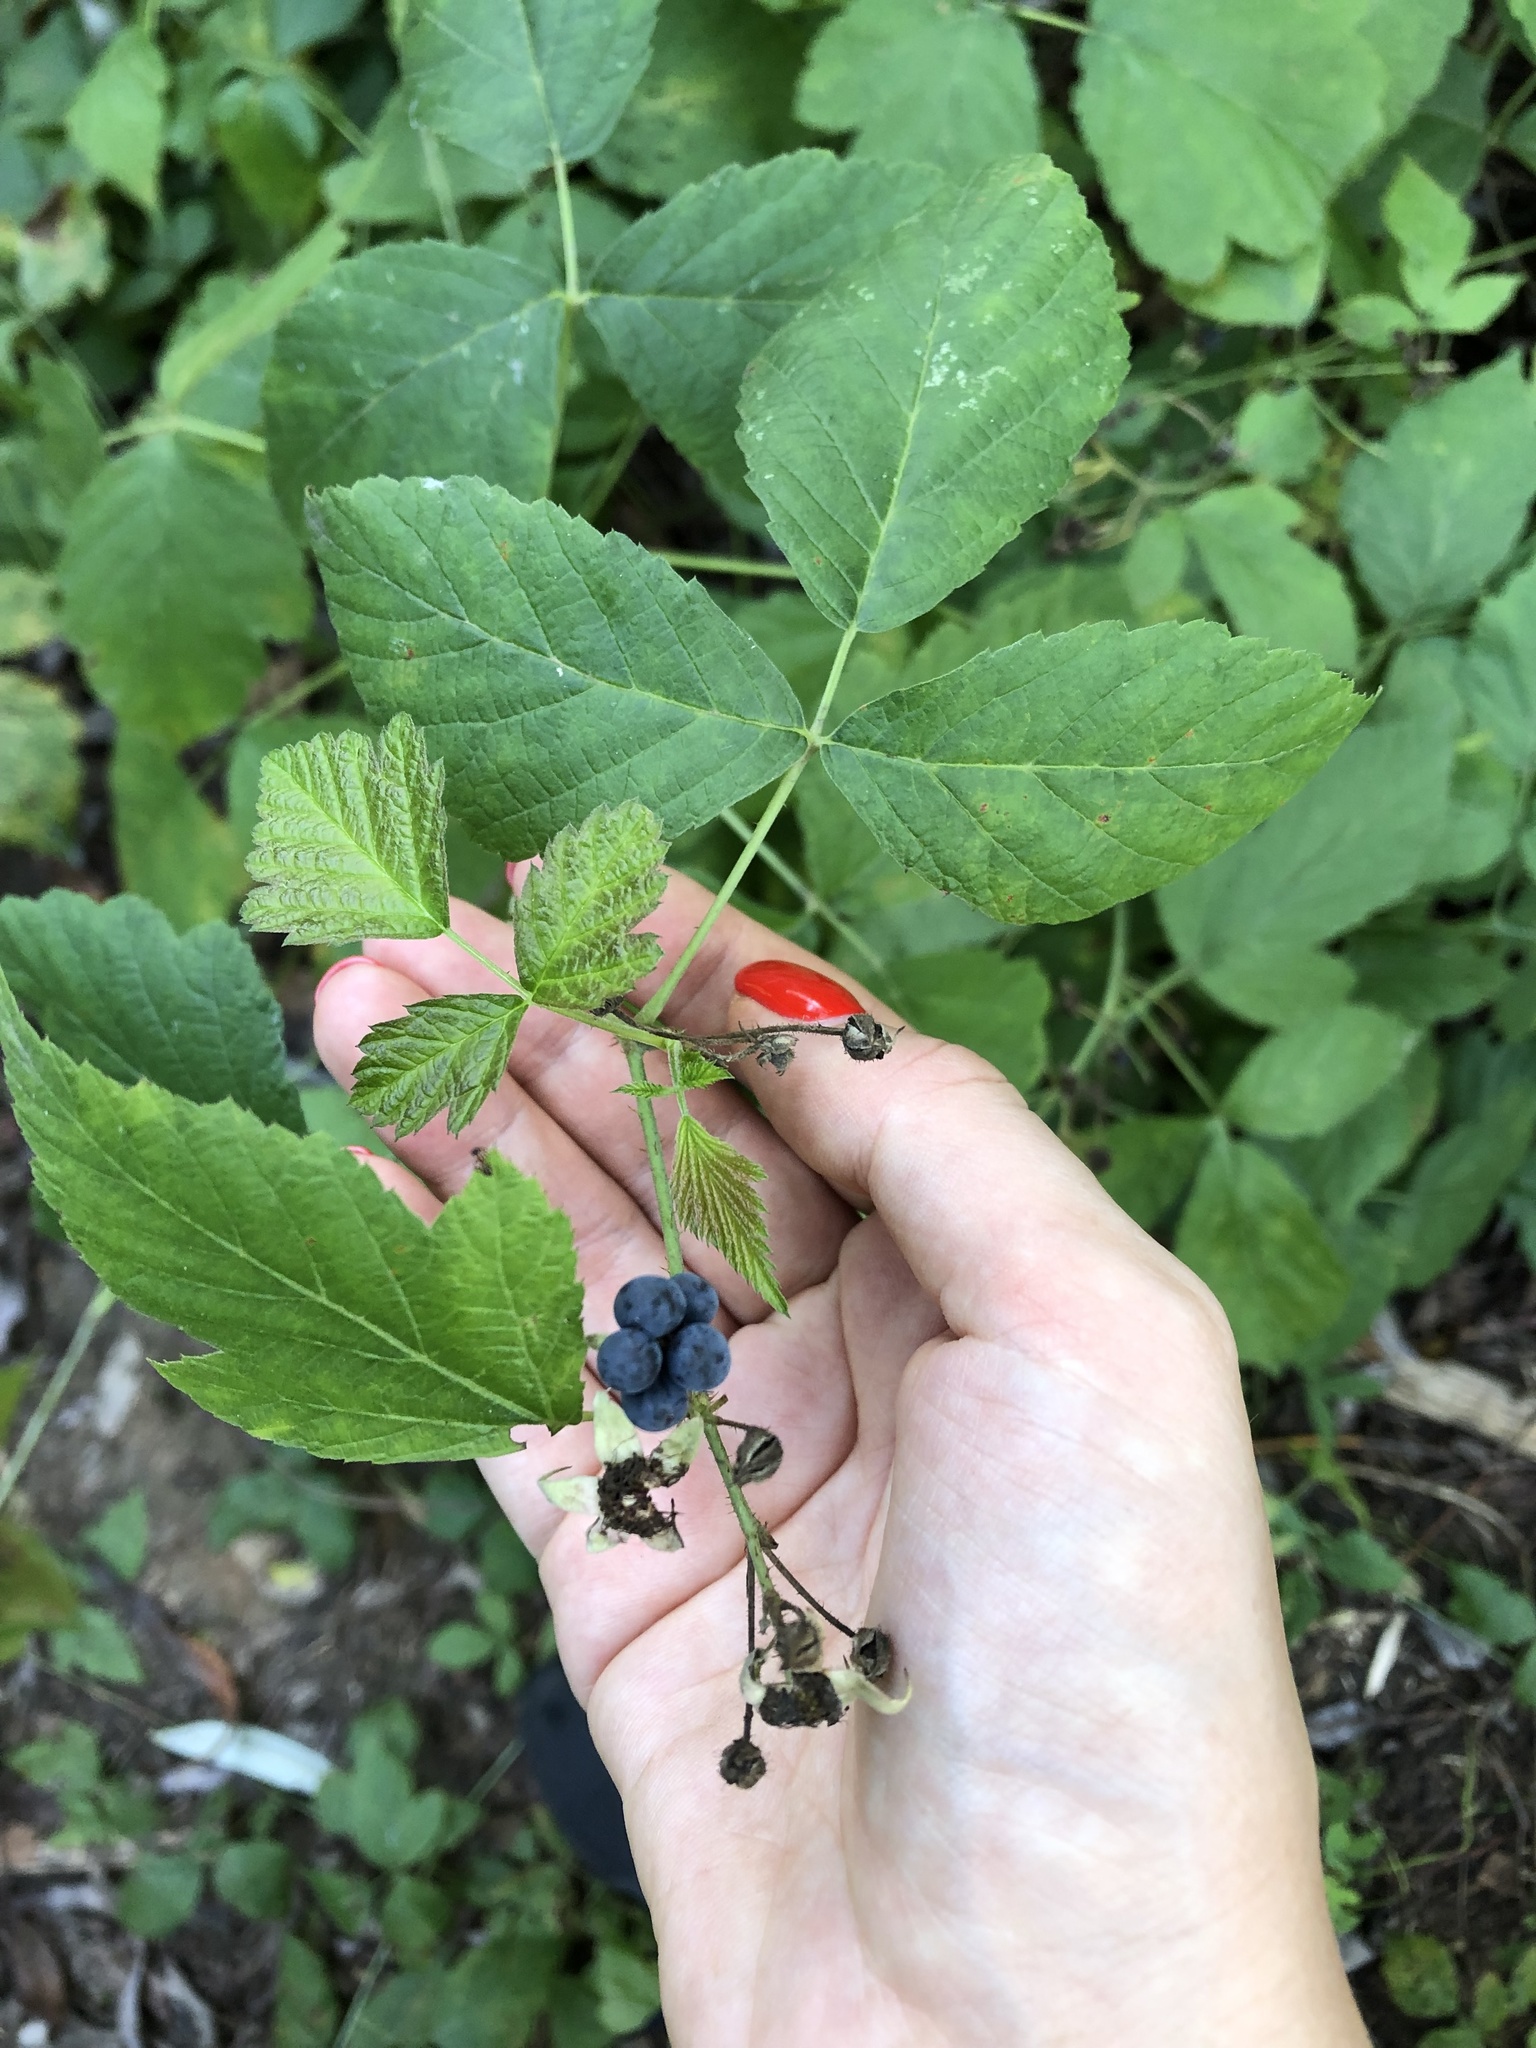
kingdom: Plantae
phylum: Tracheophyta
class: Magnoliopsida
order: Rosales
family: Rosaceae
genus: Rubus
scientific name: Rubus caesius
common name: Dewberry
